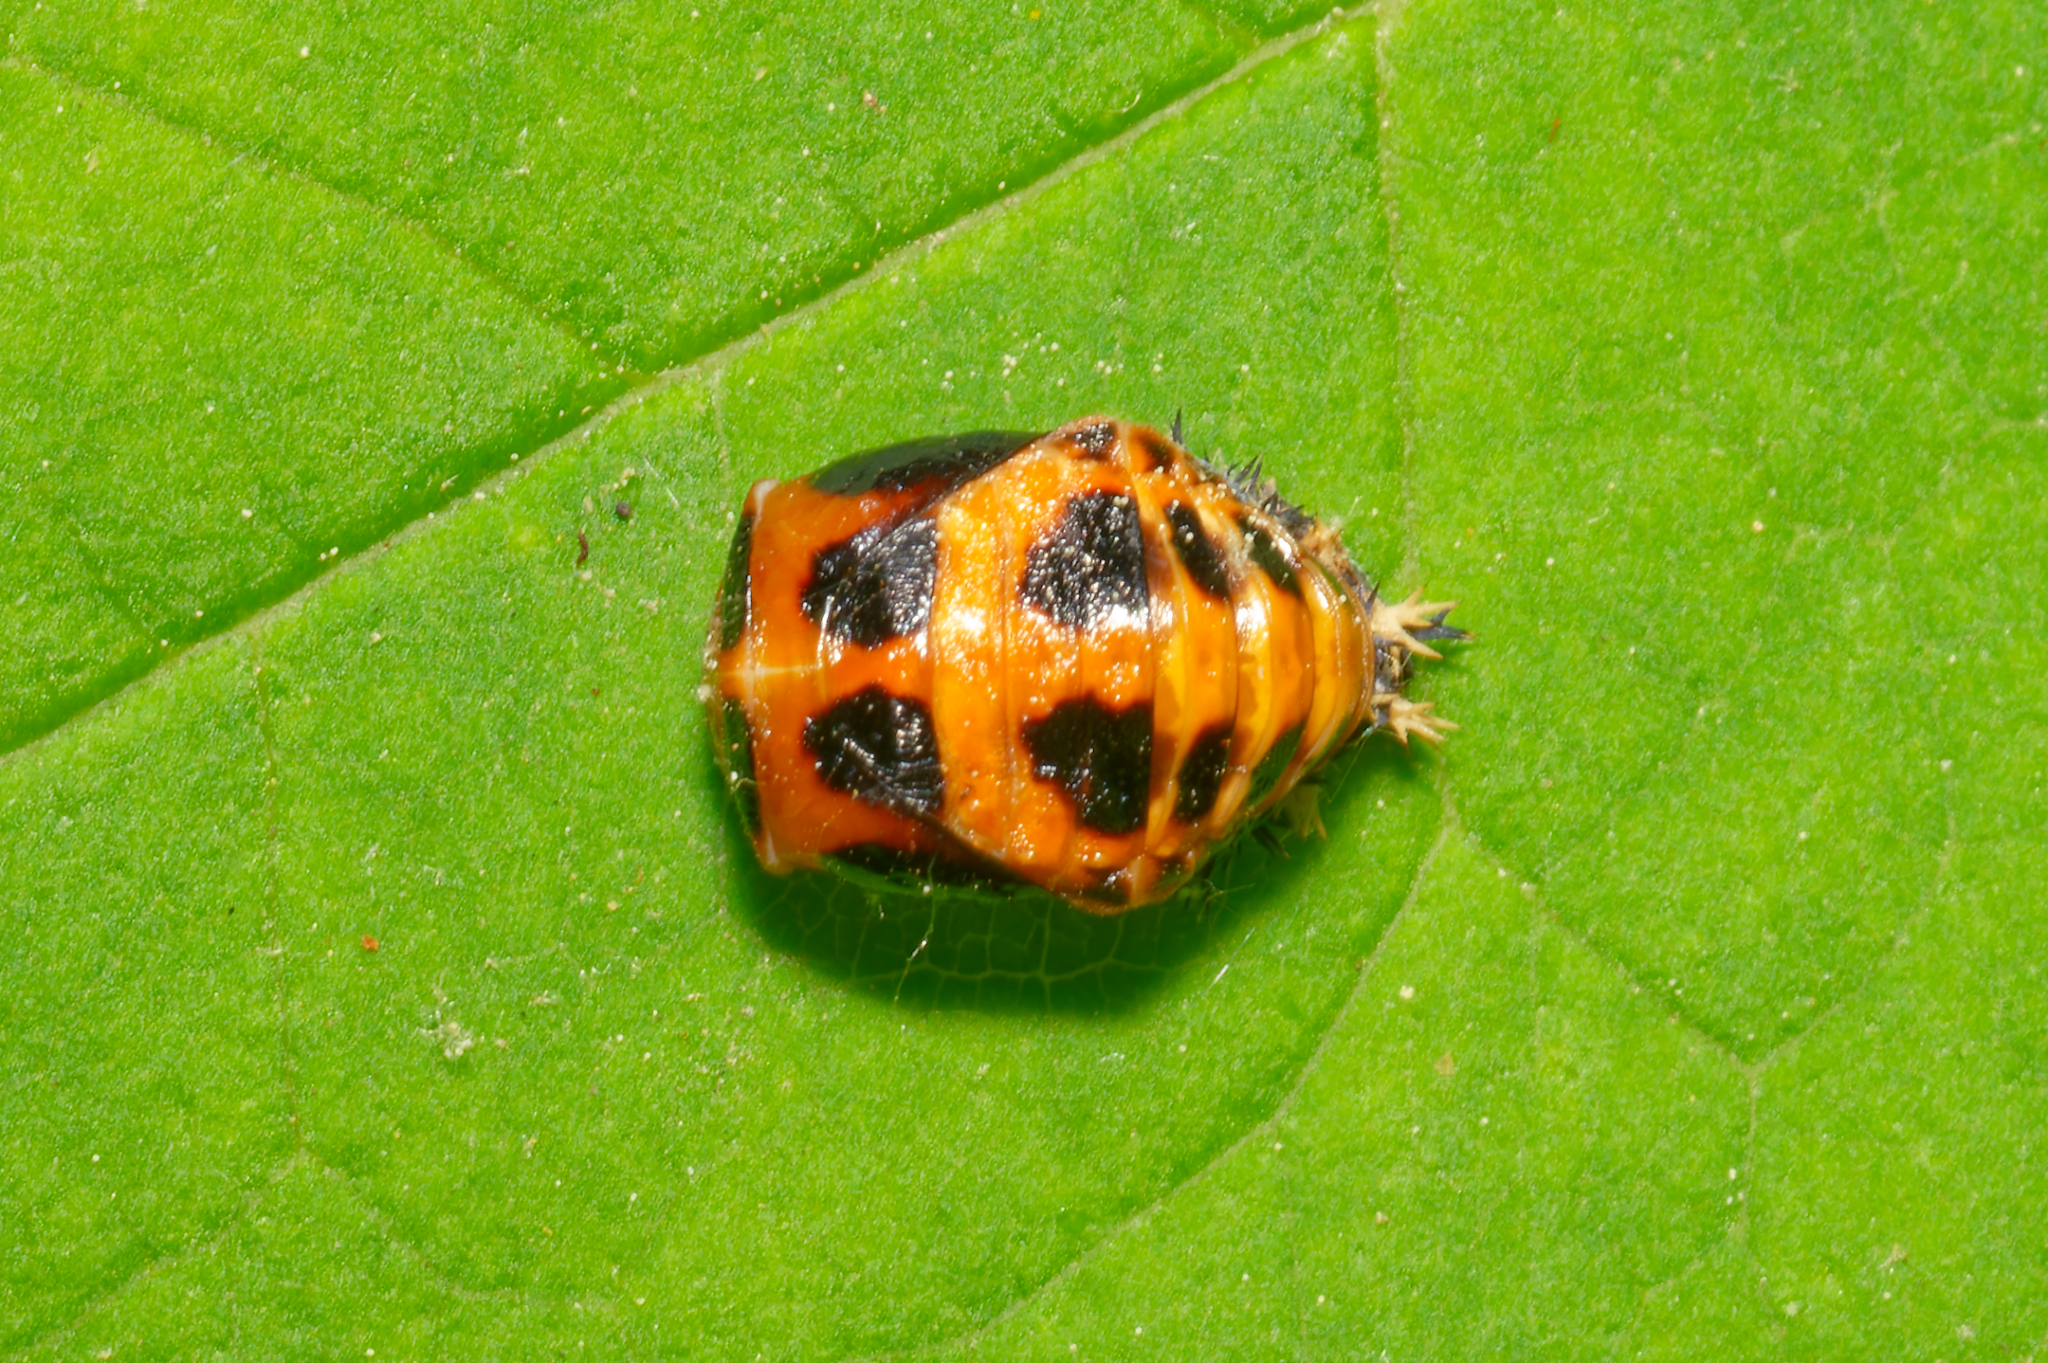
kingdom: Animalia
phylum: Arthropoda
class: Insecta
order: Coleoptera
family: Coccinellidae
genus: Harmonia
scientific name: Harmonia axyridis
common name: Harlequin ladybird
